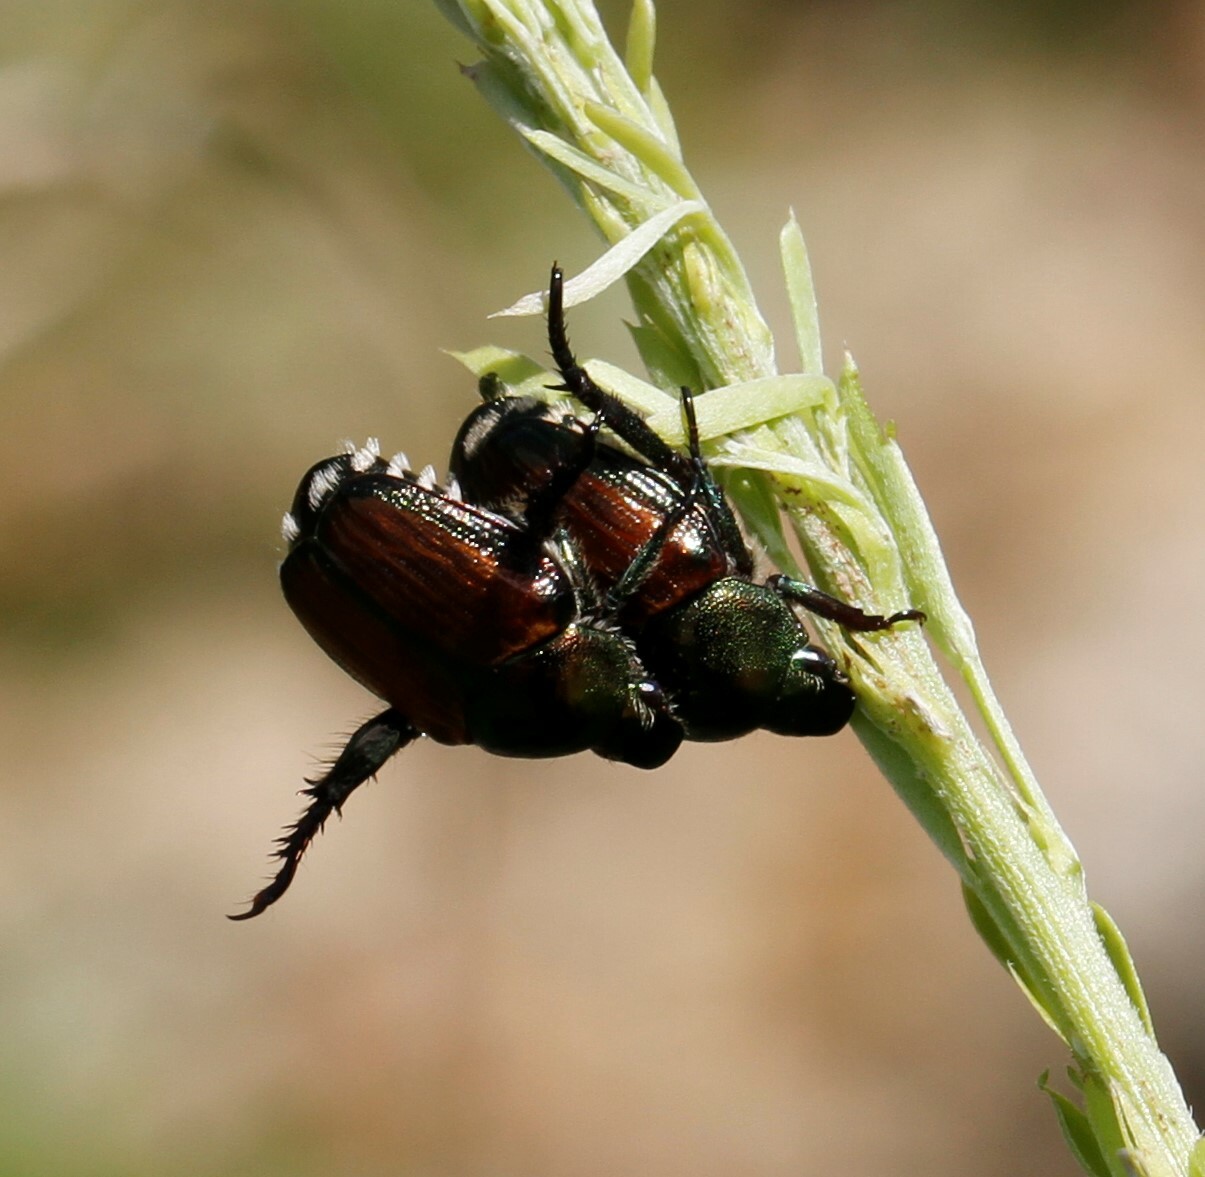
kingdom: Animalia
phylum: Arthropoda
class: Insecta
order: Coleoptera
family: Scarabaeidae
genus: Popillia
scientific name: Popillia japonica
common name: Japanese beetle
